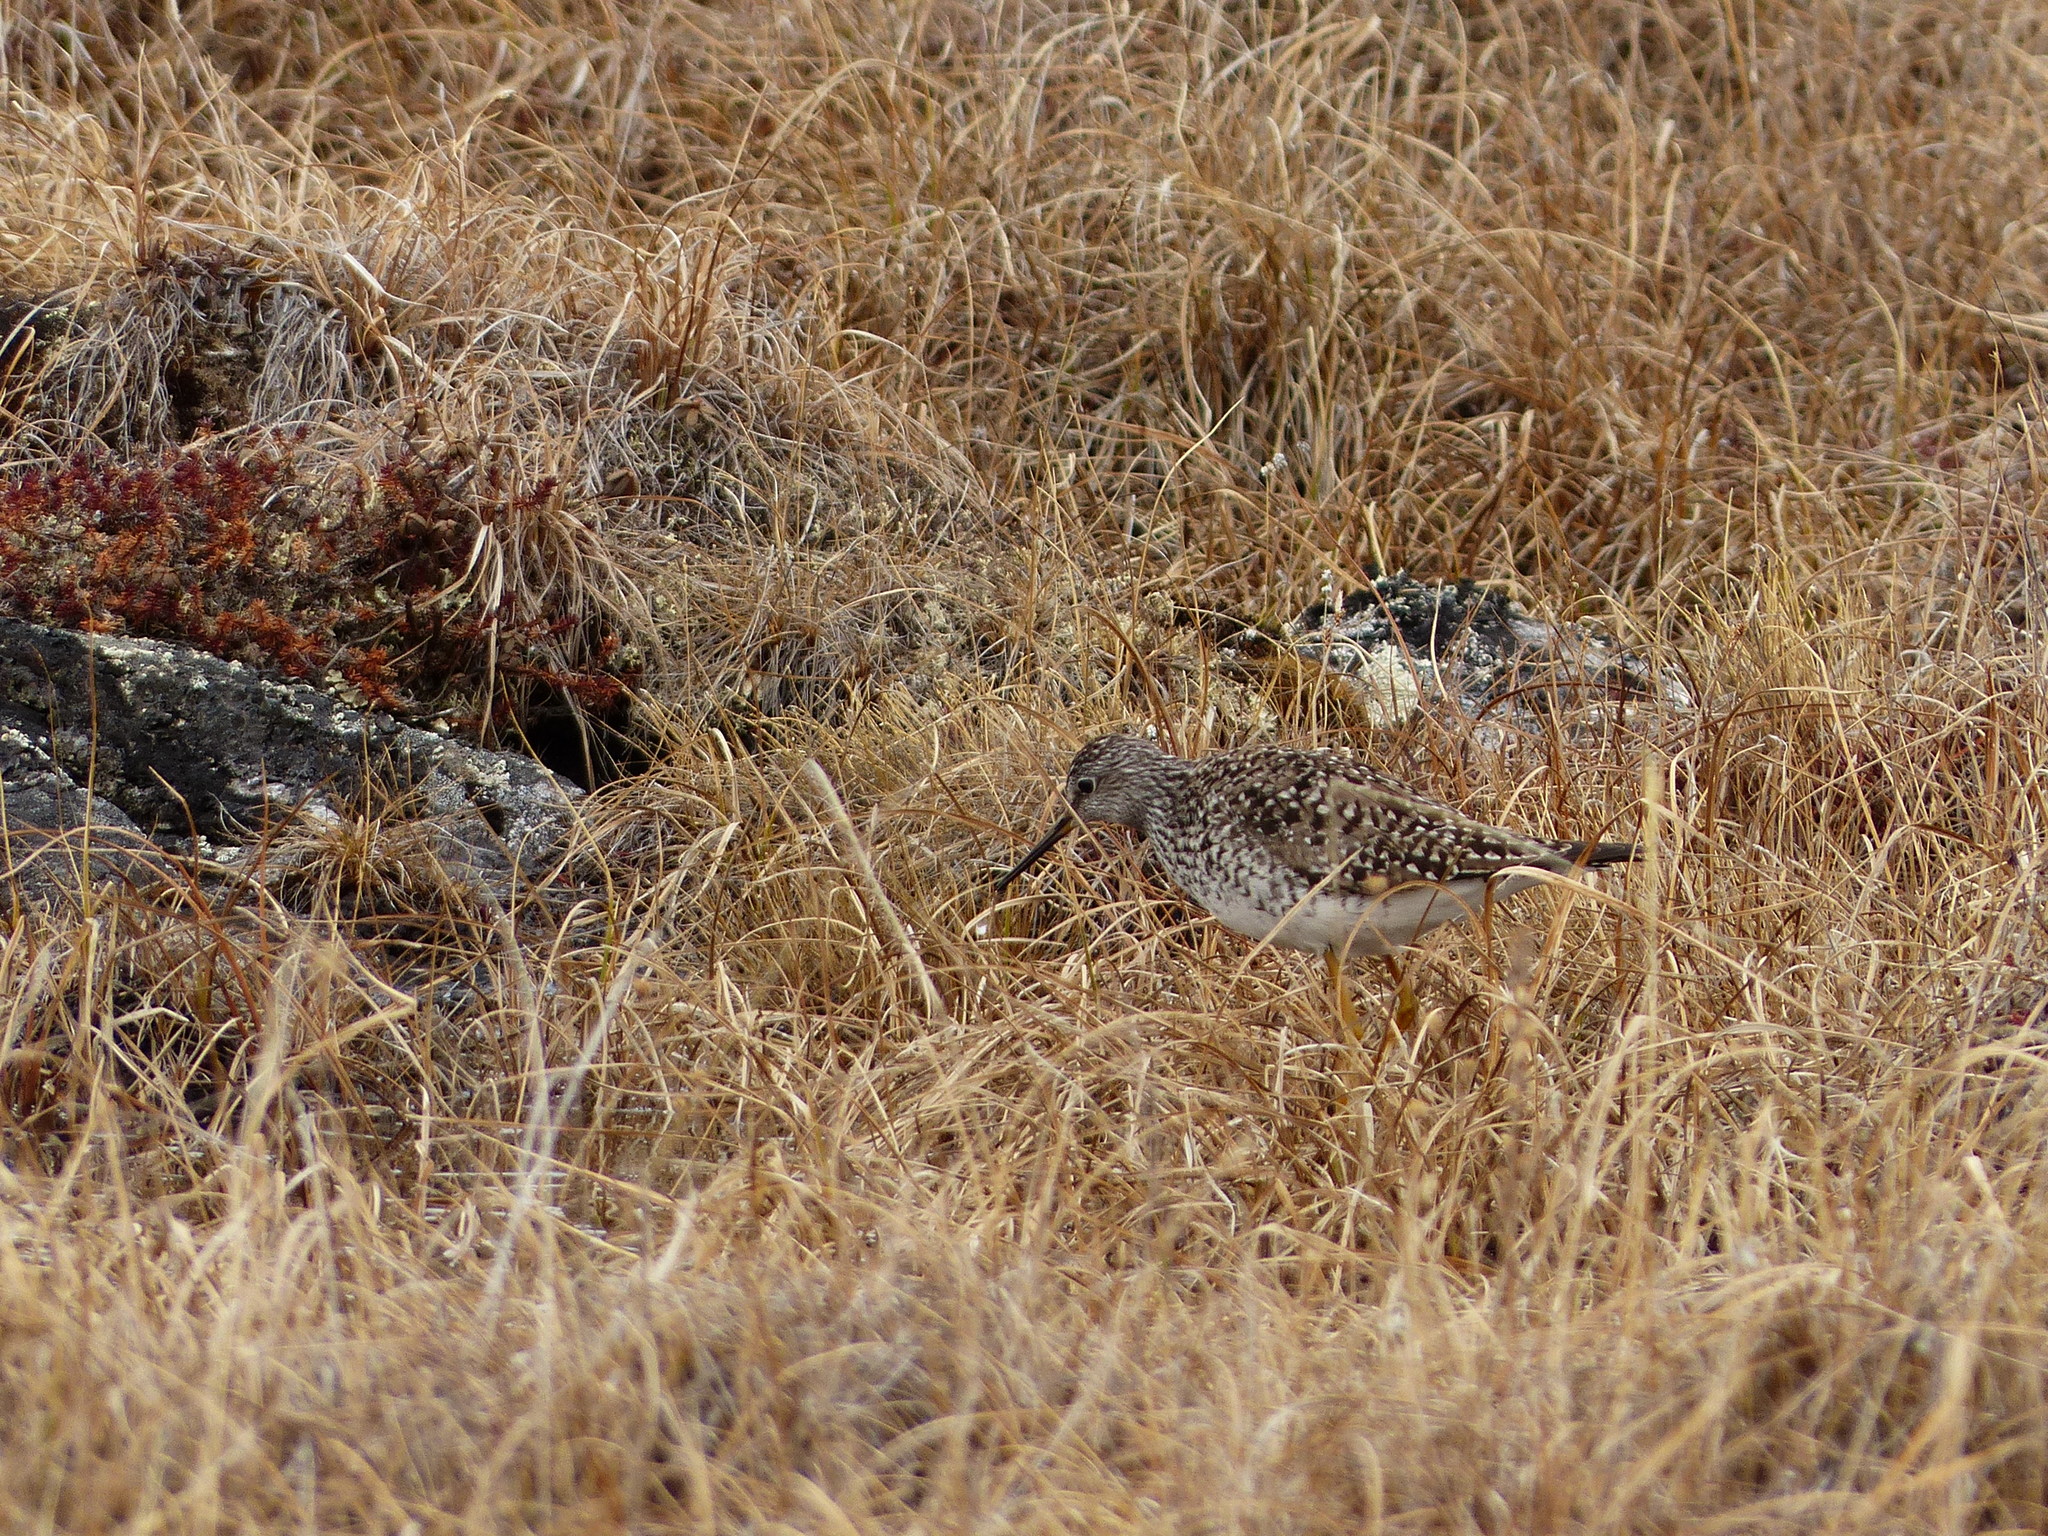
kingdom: Animalia
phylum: Chordata
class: Aves
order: Charadriiformes
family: Scolopacidae
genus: Tringa
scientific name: Tringa flavipes
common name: Lesser yellowlegs
